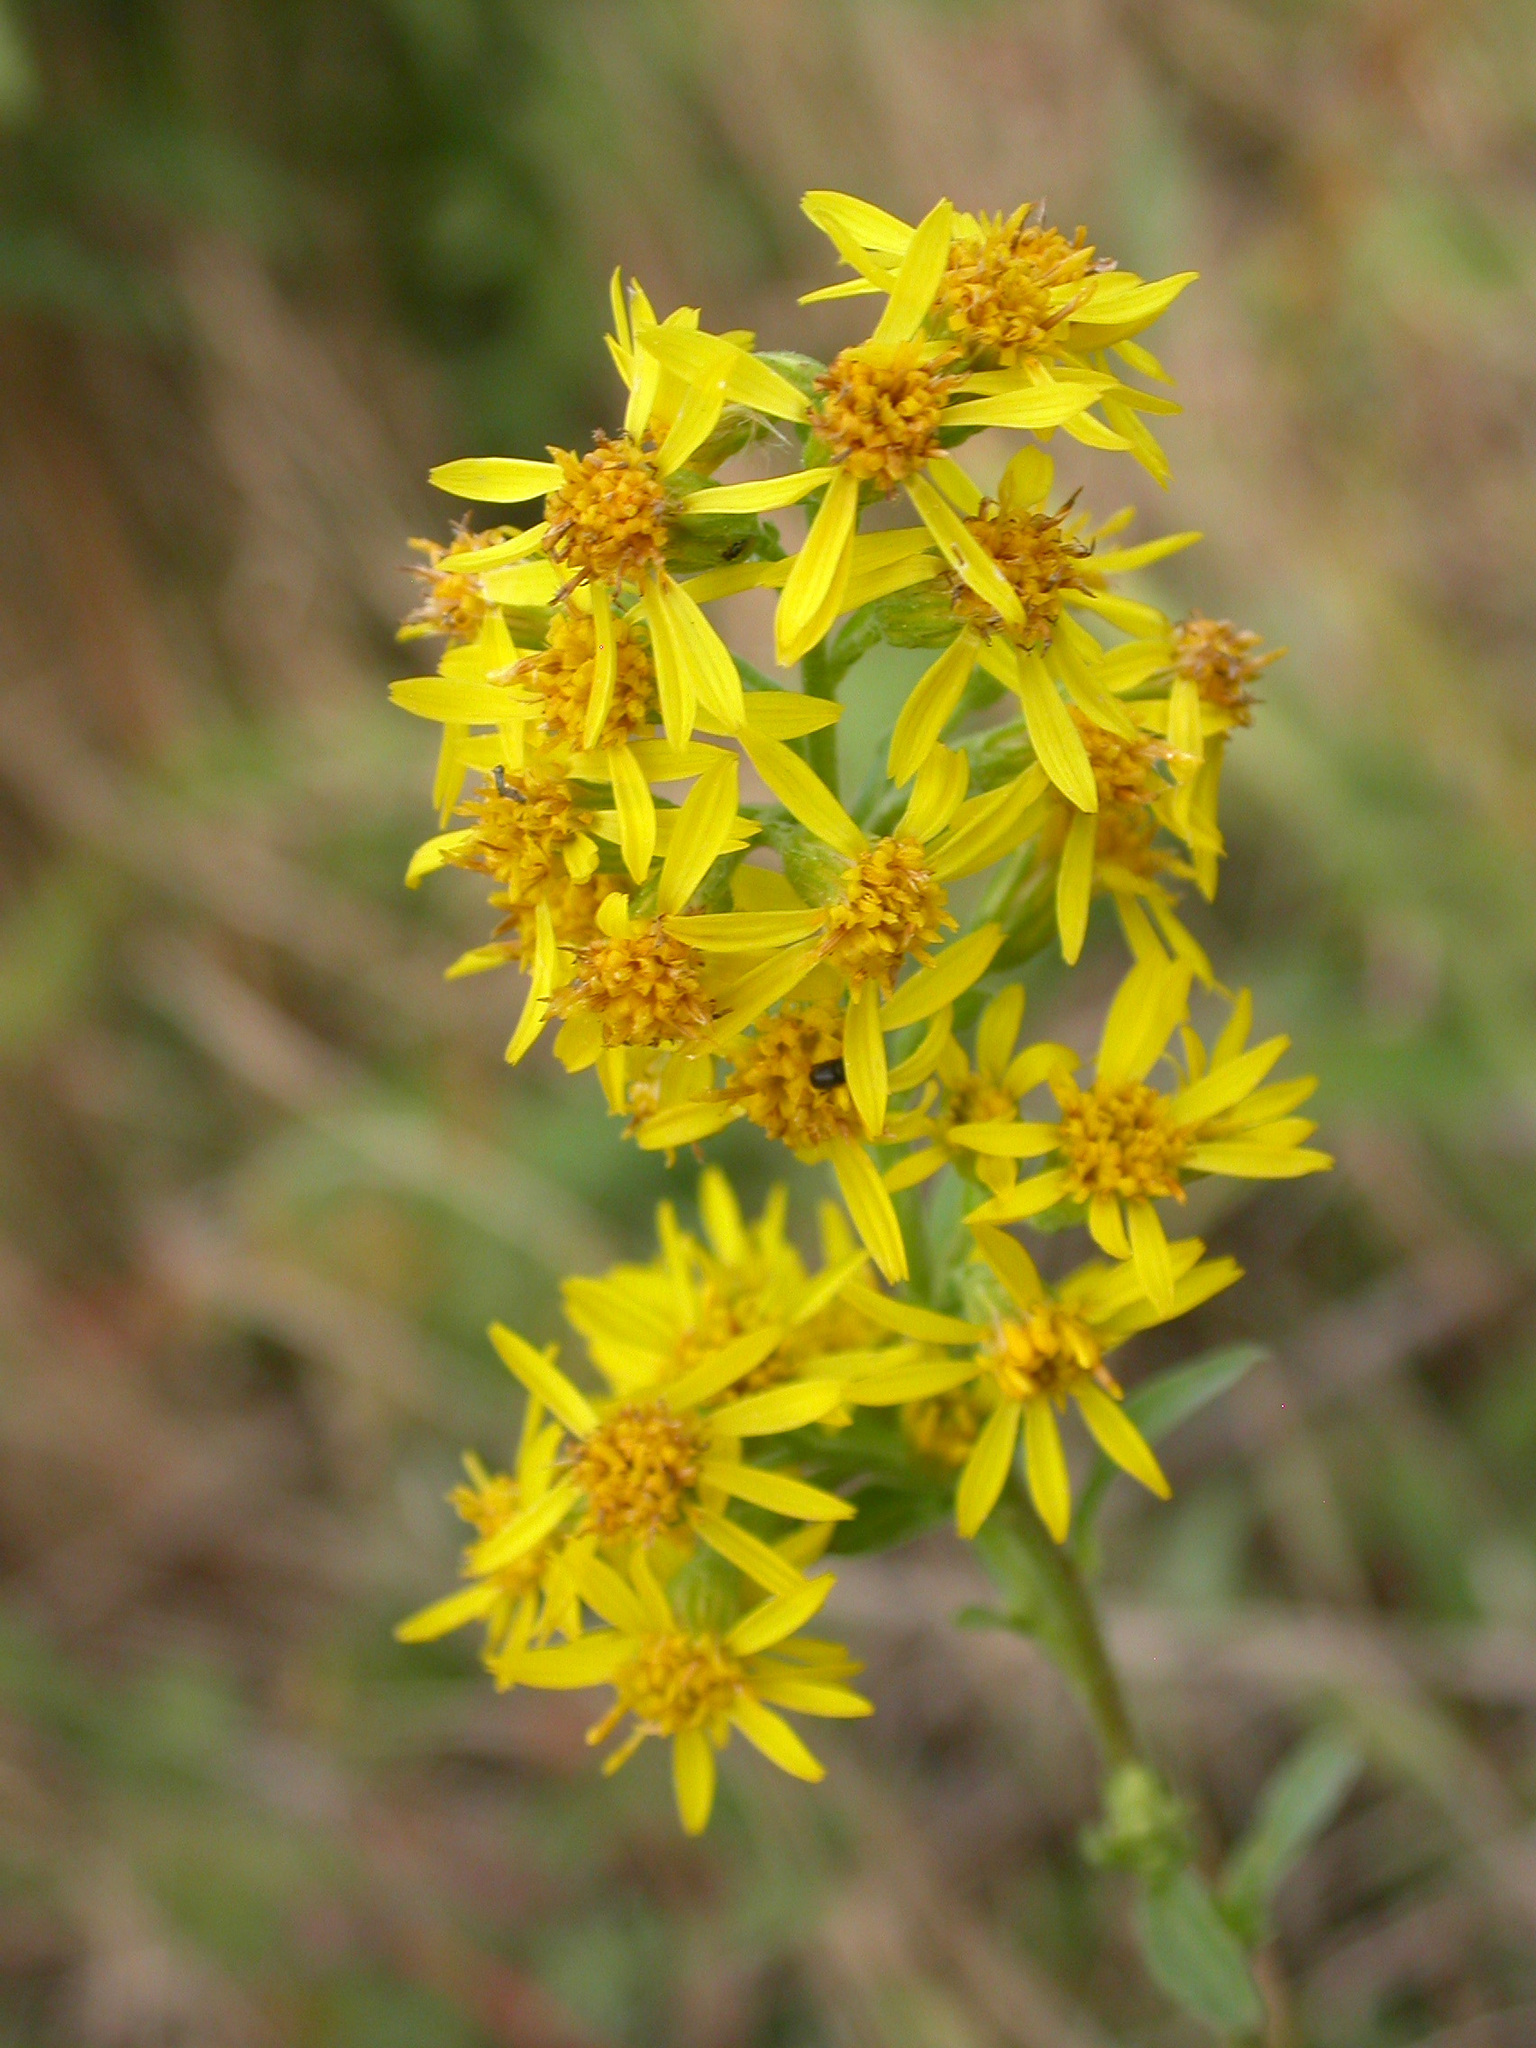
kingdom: Plantae
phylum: Tracheophyta
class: Magnoliopsida
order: Asterales
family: Asteraceae
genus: Solidago
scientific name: Solidago virgaurea
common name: Goldenrod
